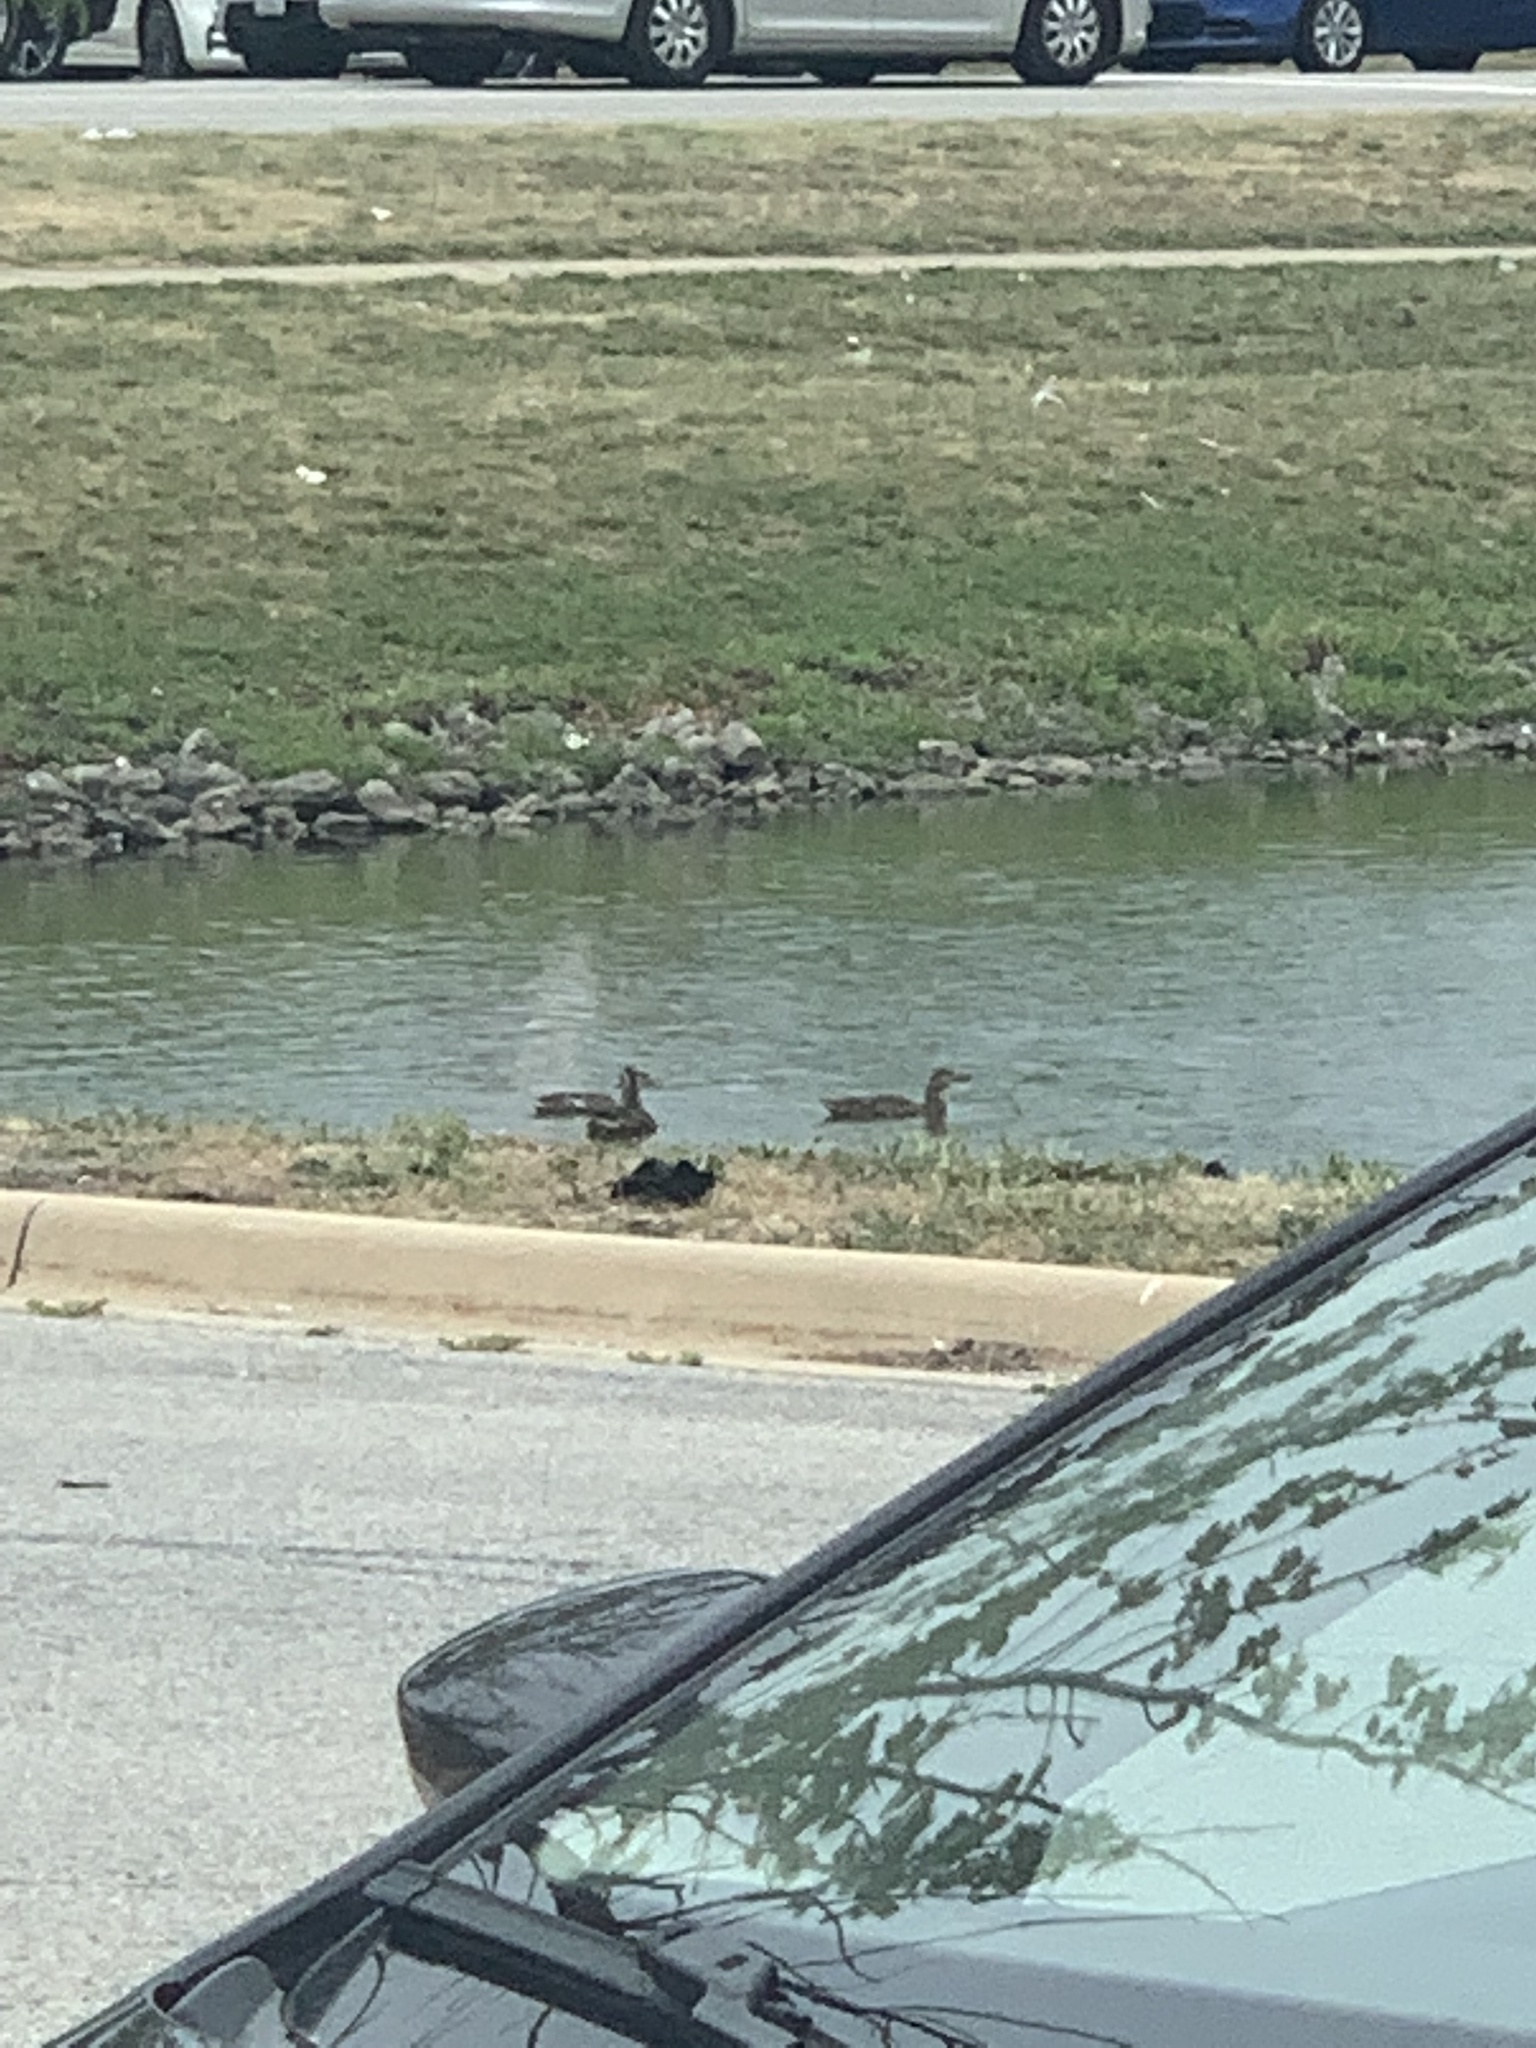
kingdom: Animalia
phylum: Chordata
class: Aves
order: Anseriformes
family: Anatidae
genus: Anas
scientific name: Anas platyrhynchos
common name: Mallard
